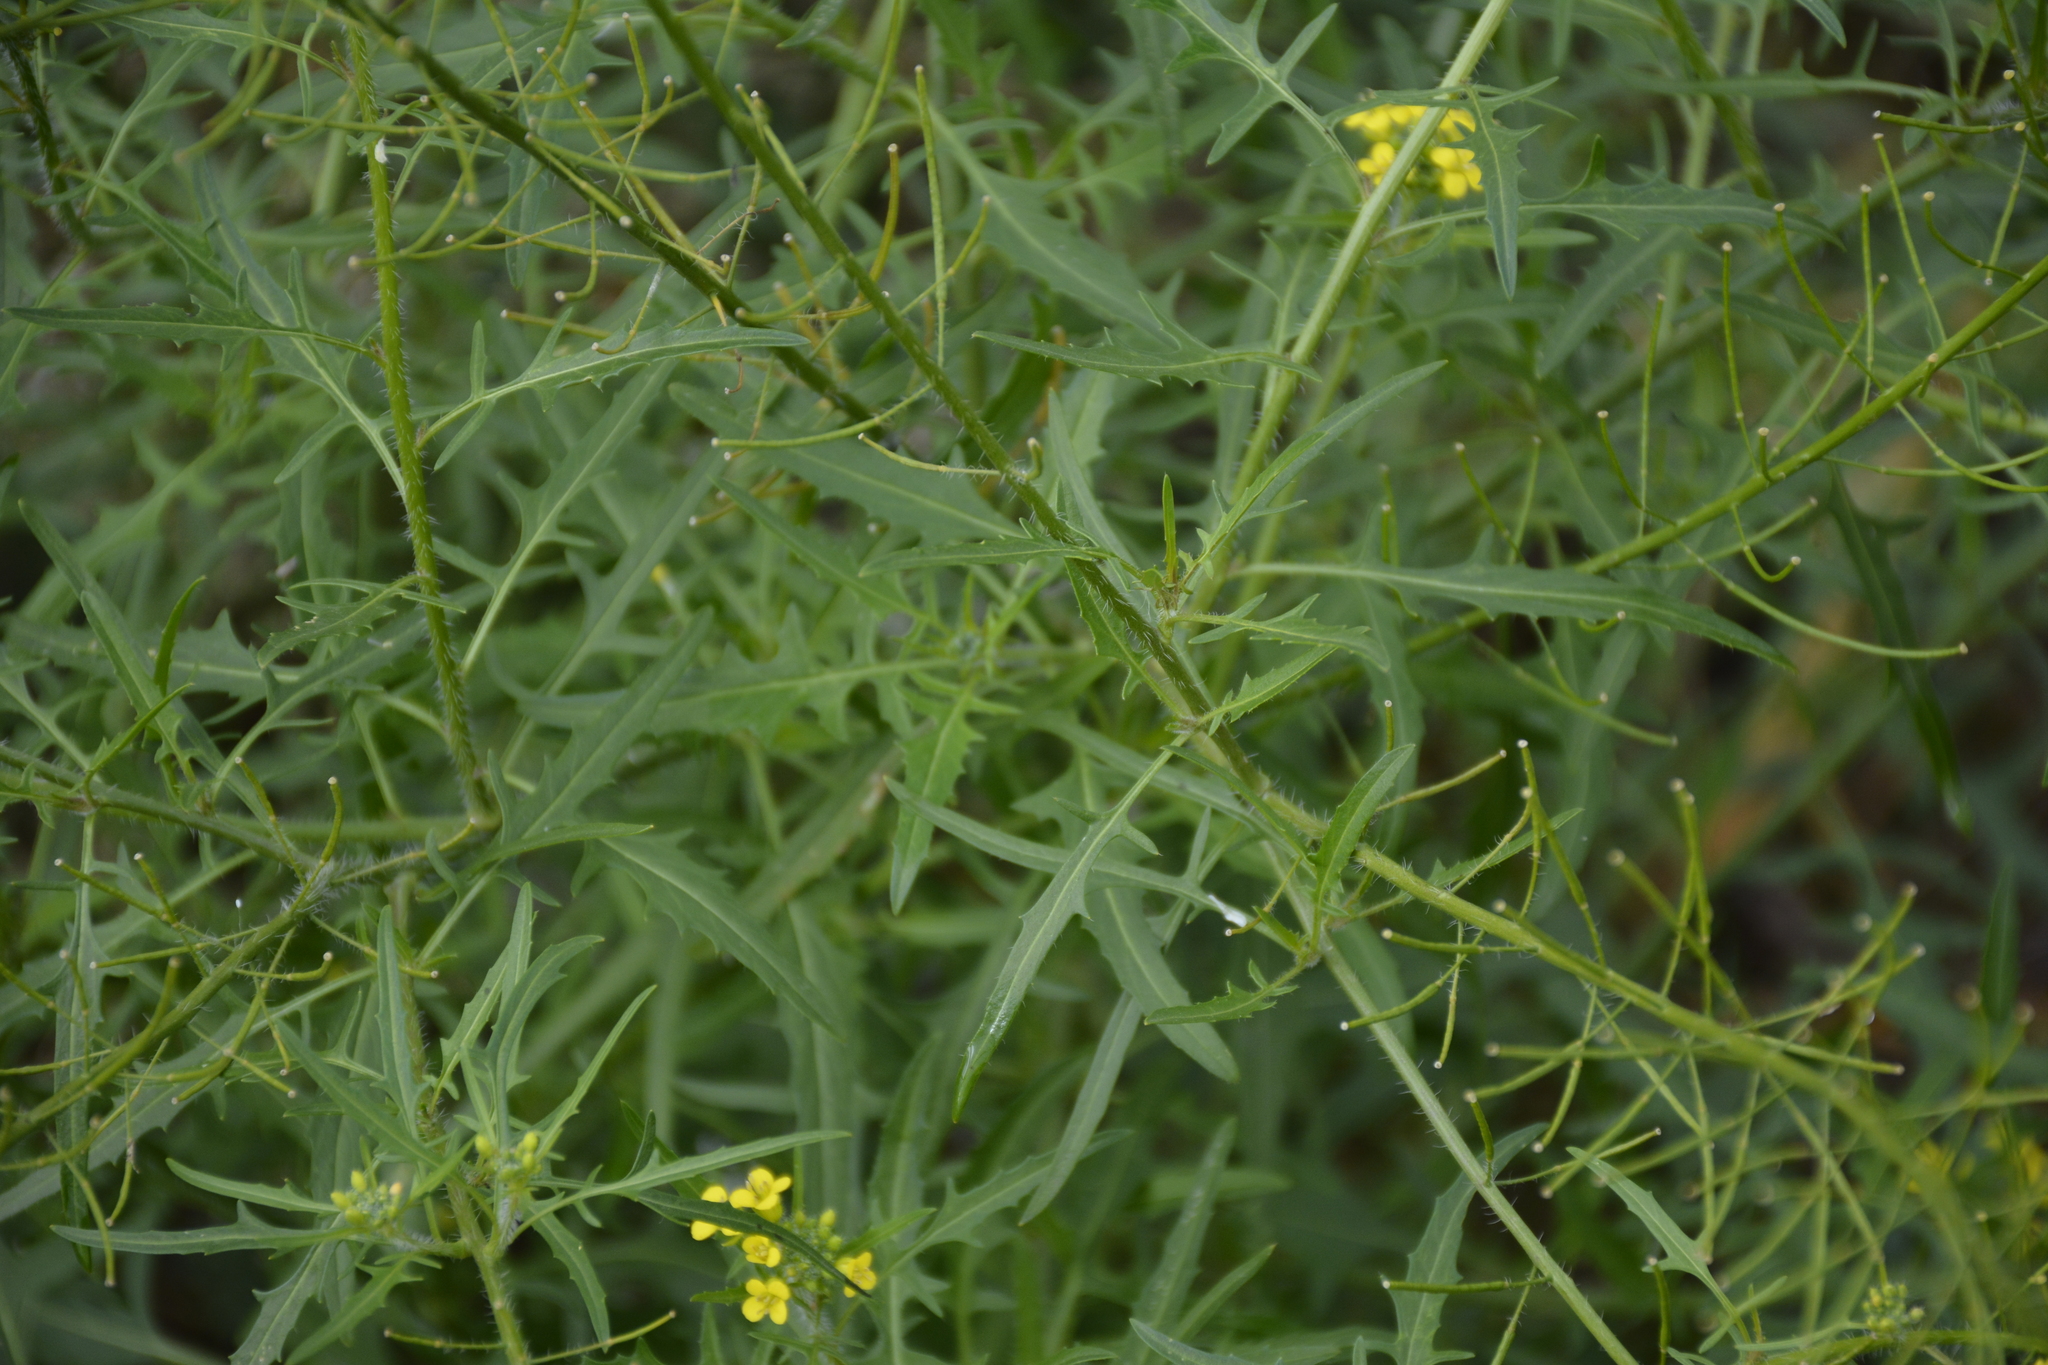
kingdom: Plantae
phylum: Tracheophyta
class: Magnoliopsida
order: Brassicales
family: Brassicaceae
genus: Sisymbrium
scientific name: Sisymbrium loeselii
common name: False london-rocket
